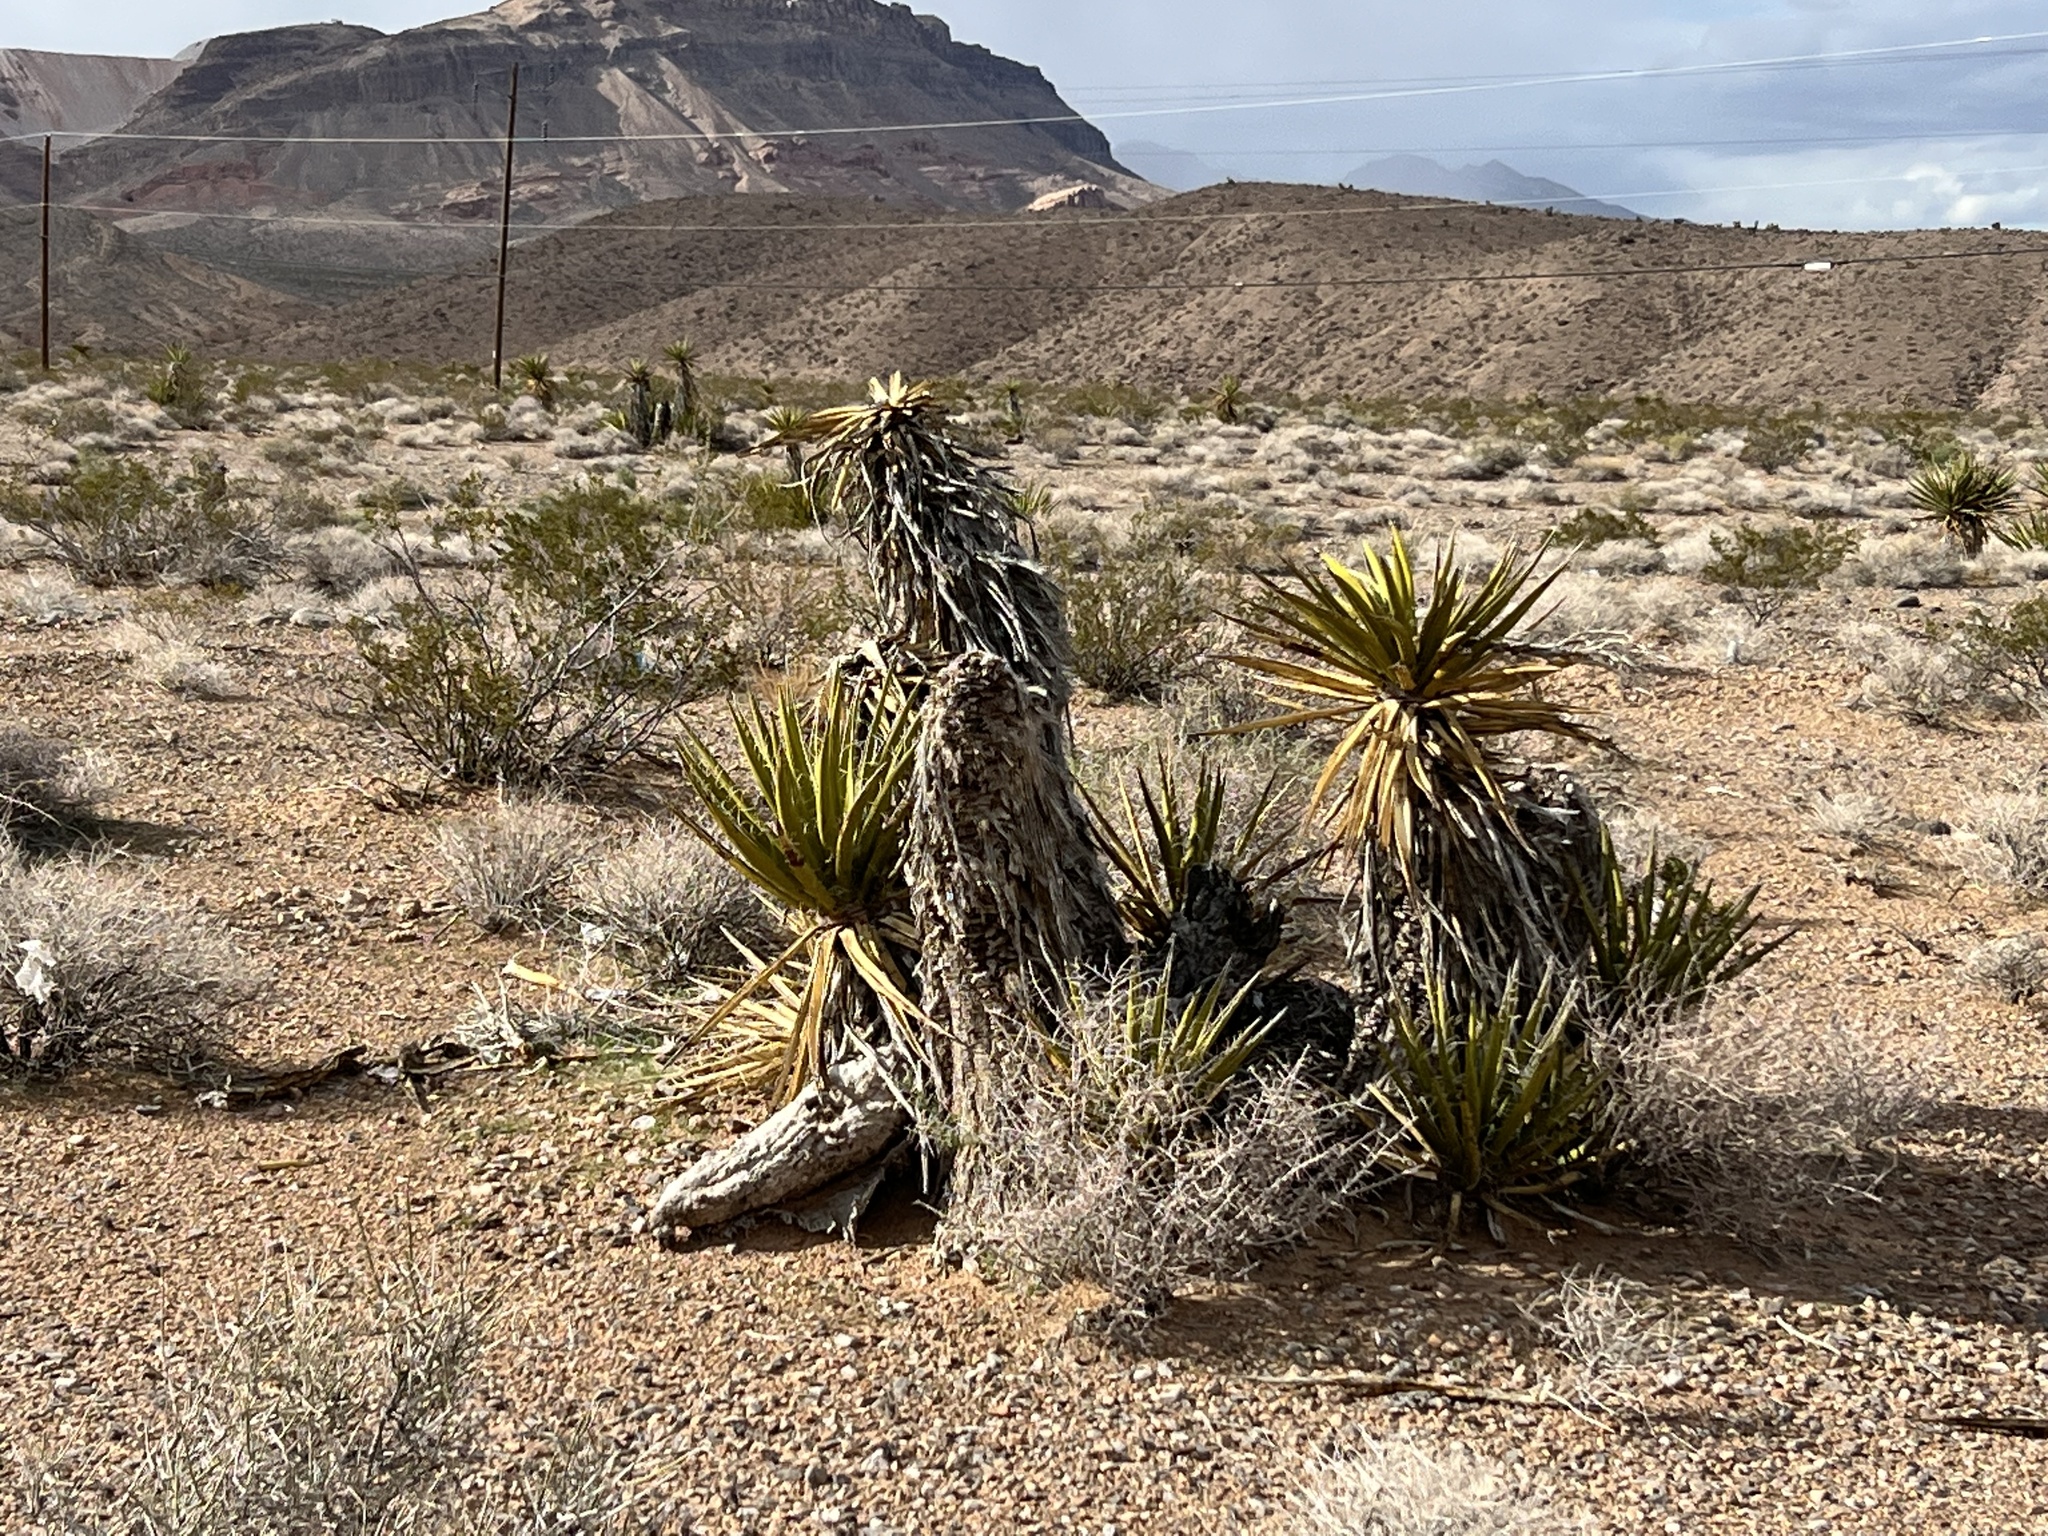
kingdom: Plantae
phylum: Tracheophyta
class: Liliopsida
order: Asparagales
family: Asparagaceae
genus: Yucca
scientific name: Yucca schidigera
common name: Mojave yucca
